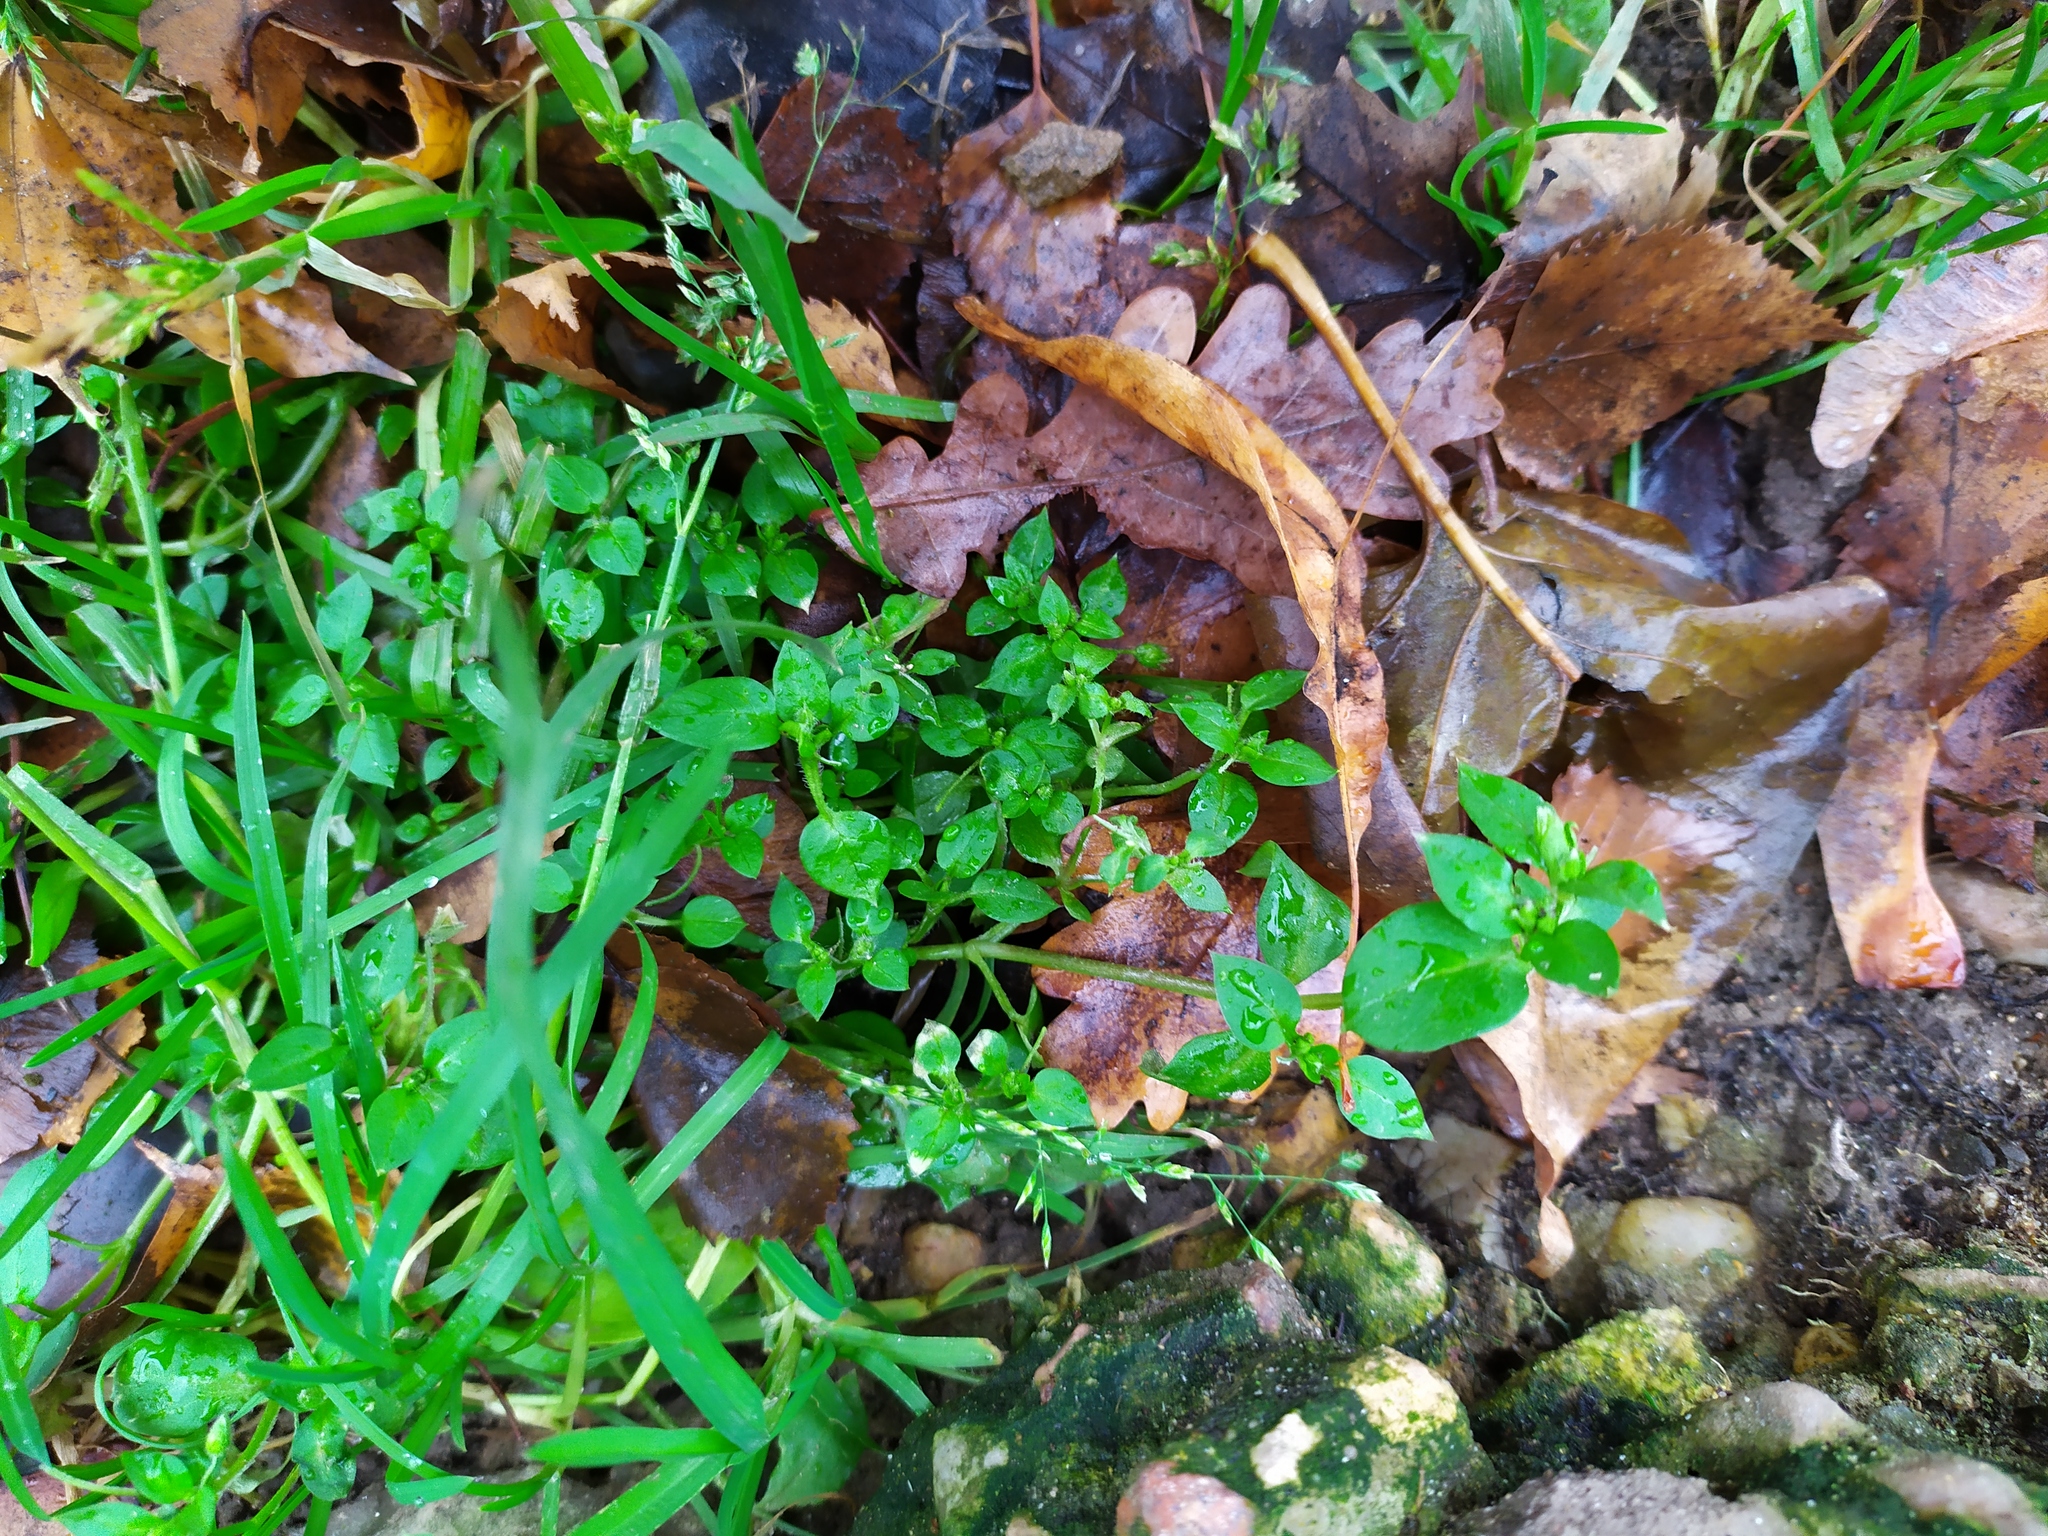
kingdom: Plantae
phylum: Tracheophyta
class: Magnoliopsida
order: Caryophyllales
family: Caryophyllaceae
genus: Stellaria
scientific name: Stellaria media
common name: Common chickweed
